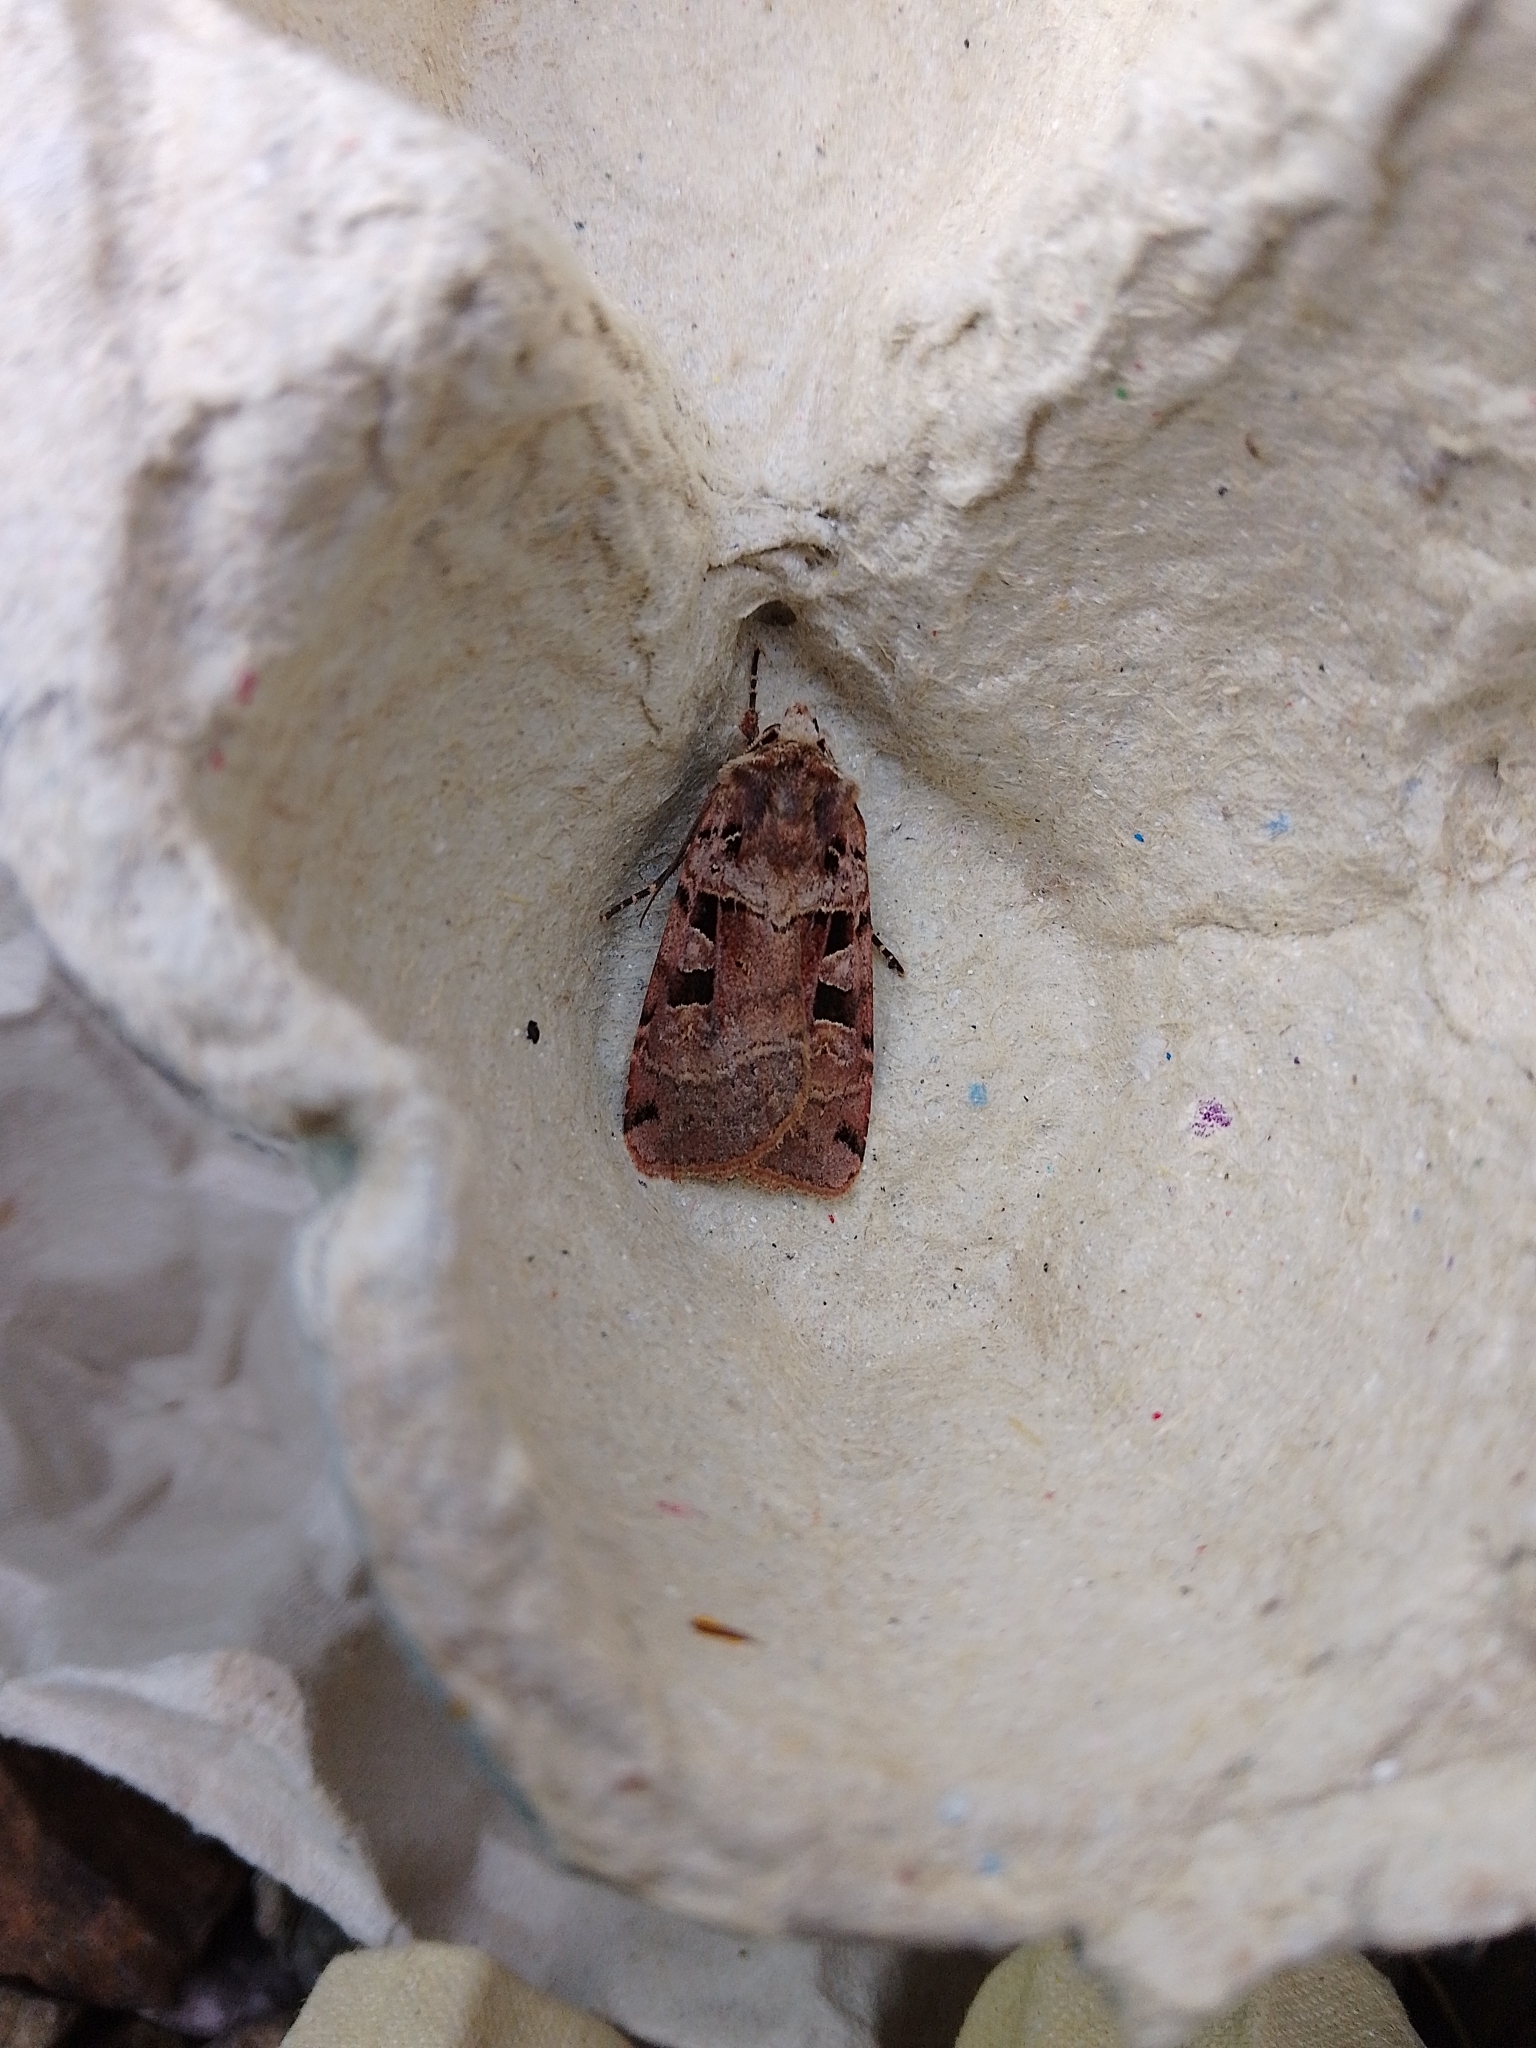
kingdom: Animalia
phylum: Arthropoda
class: Insecta
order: Lepidoptera
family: Noctuidae
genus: Xestia
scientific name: Xestia triangulum
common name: Double square-spot
